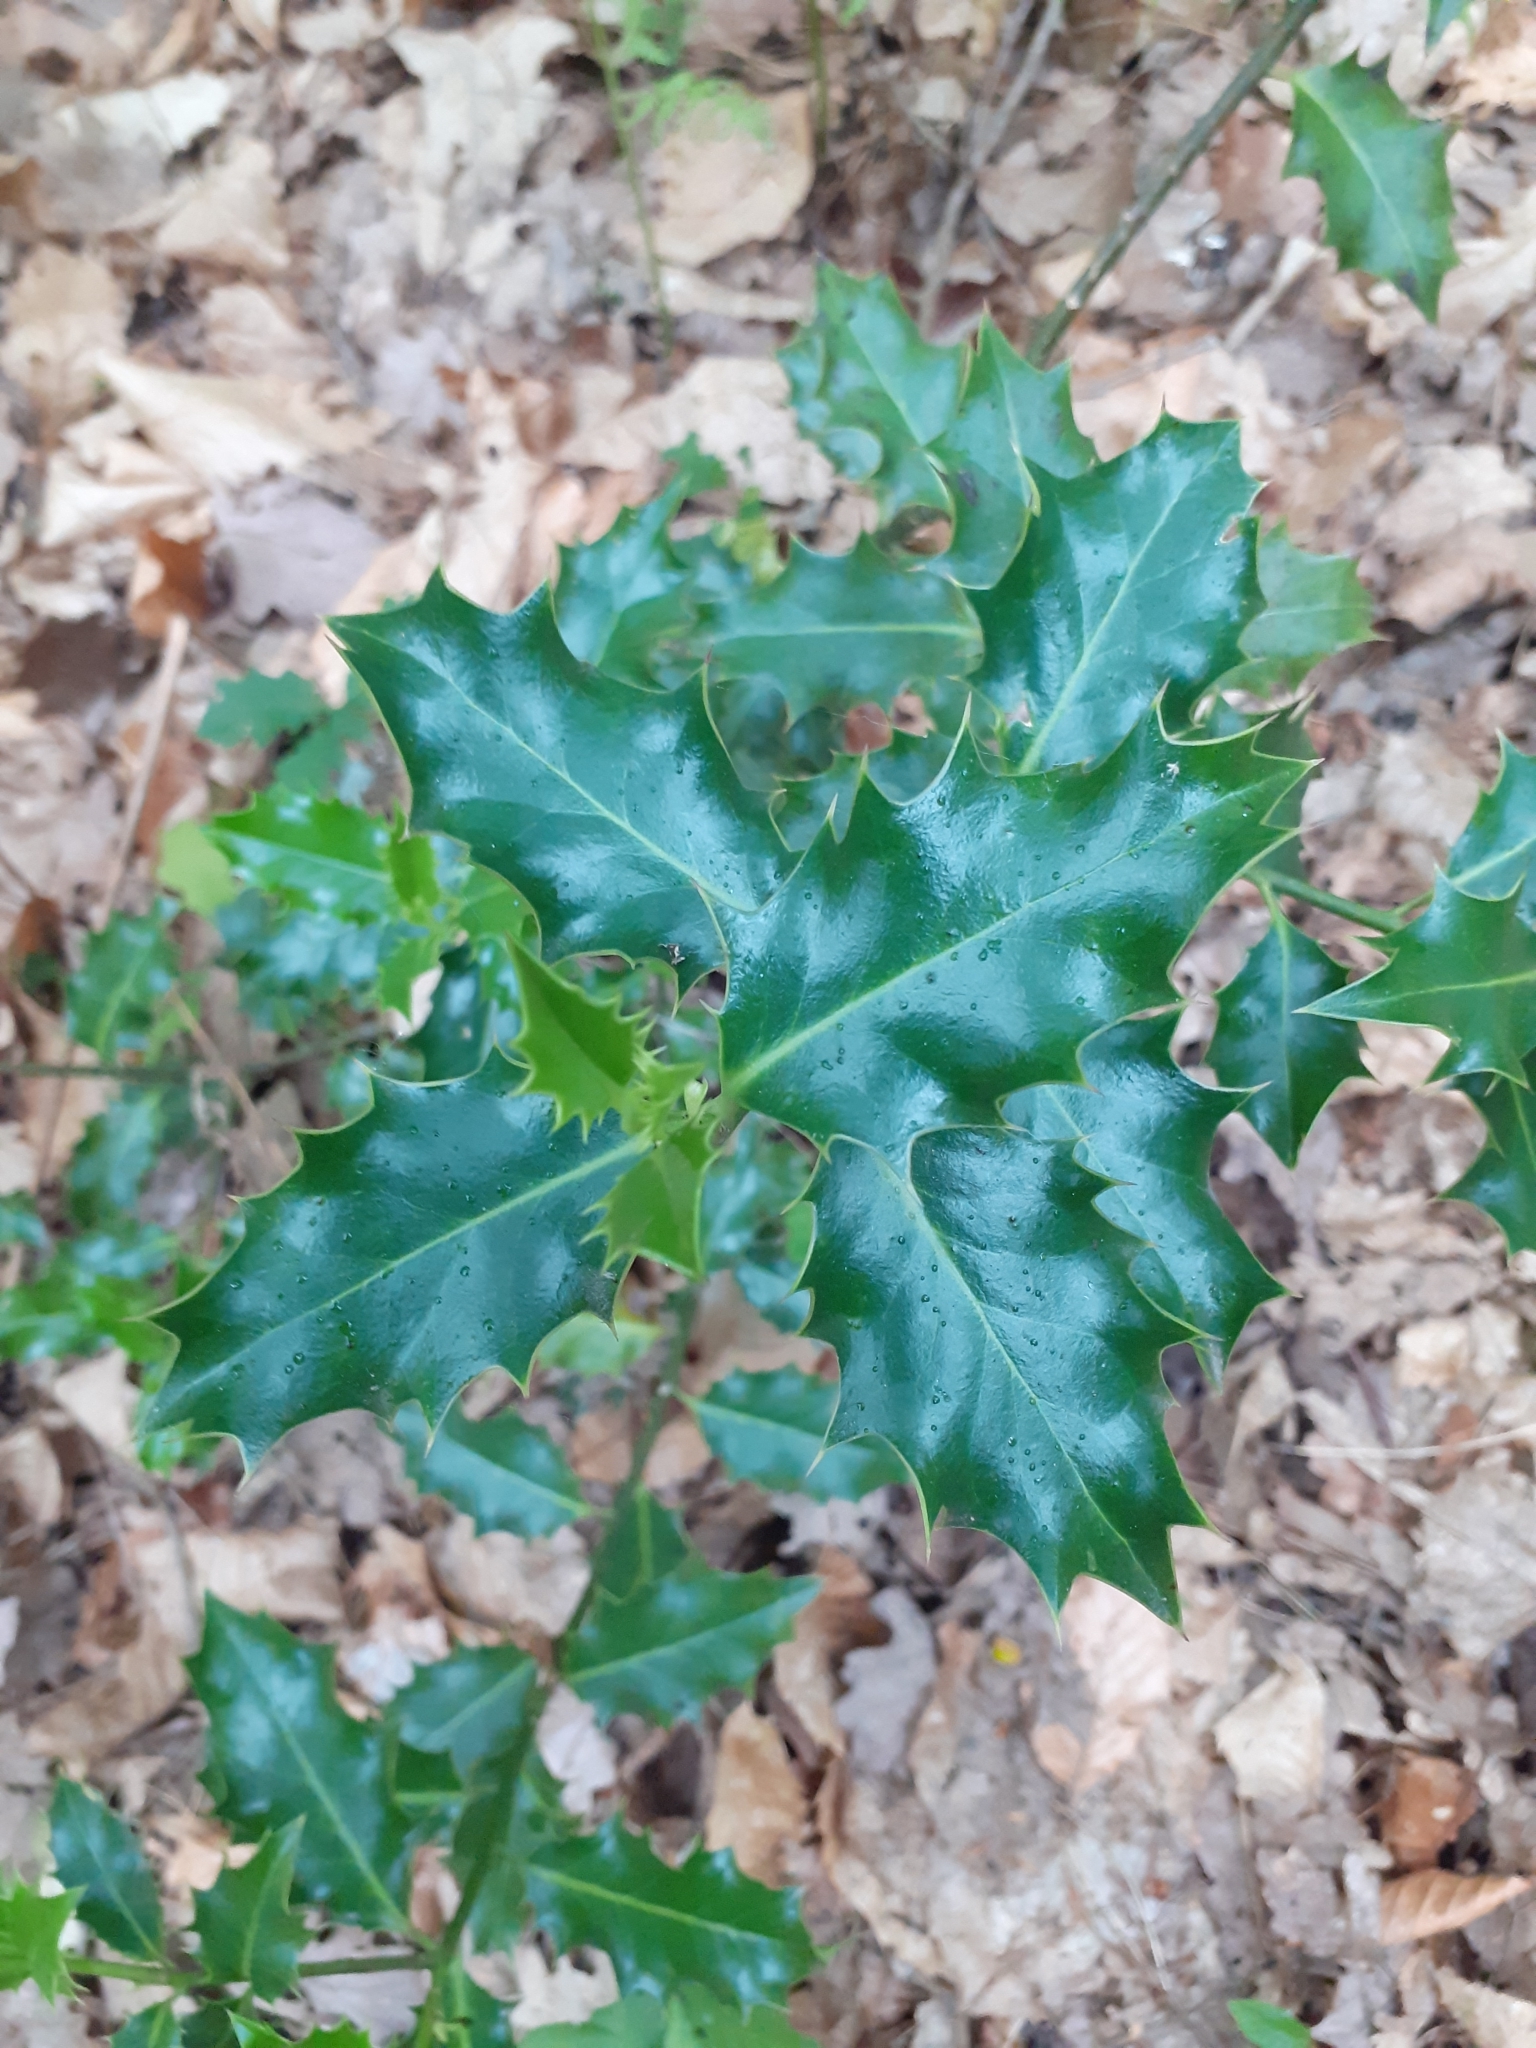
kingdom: Plantae
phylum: Tracheophyta
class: Magnoliopsida
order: Aquifoliales
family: Aquifoliaceae
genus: Ilex
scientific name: Ilex aquifolium
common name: English holly
